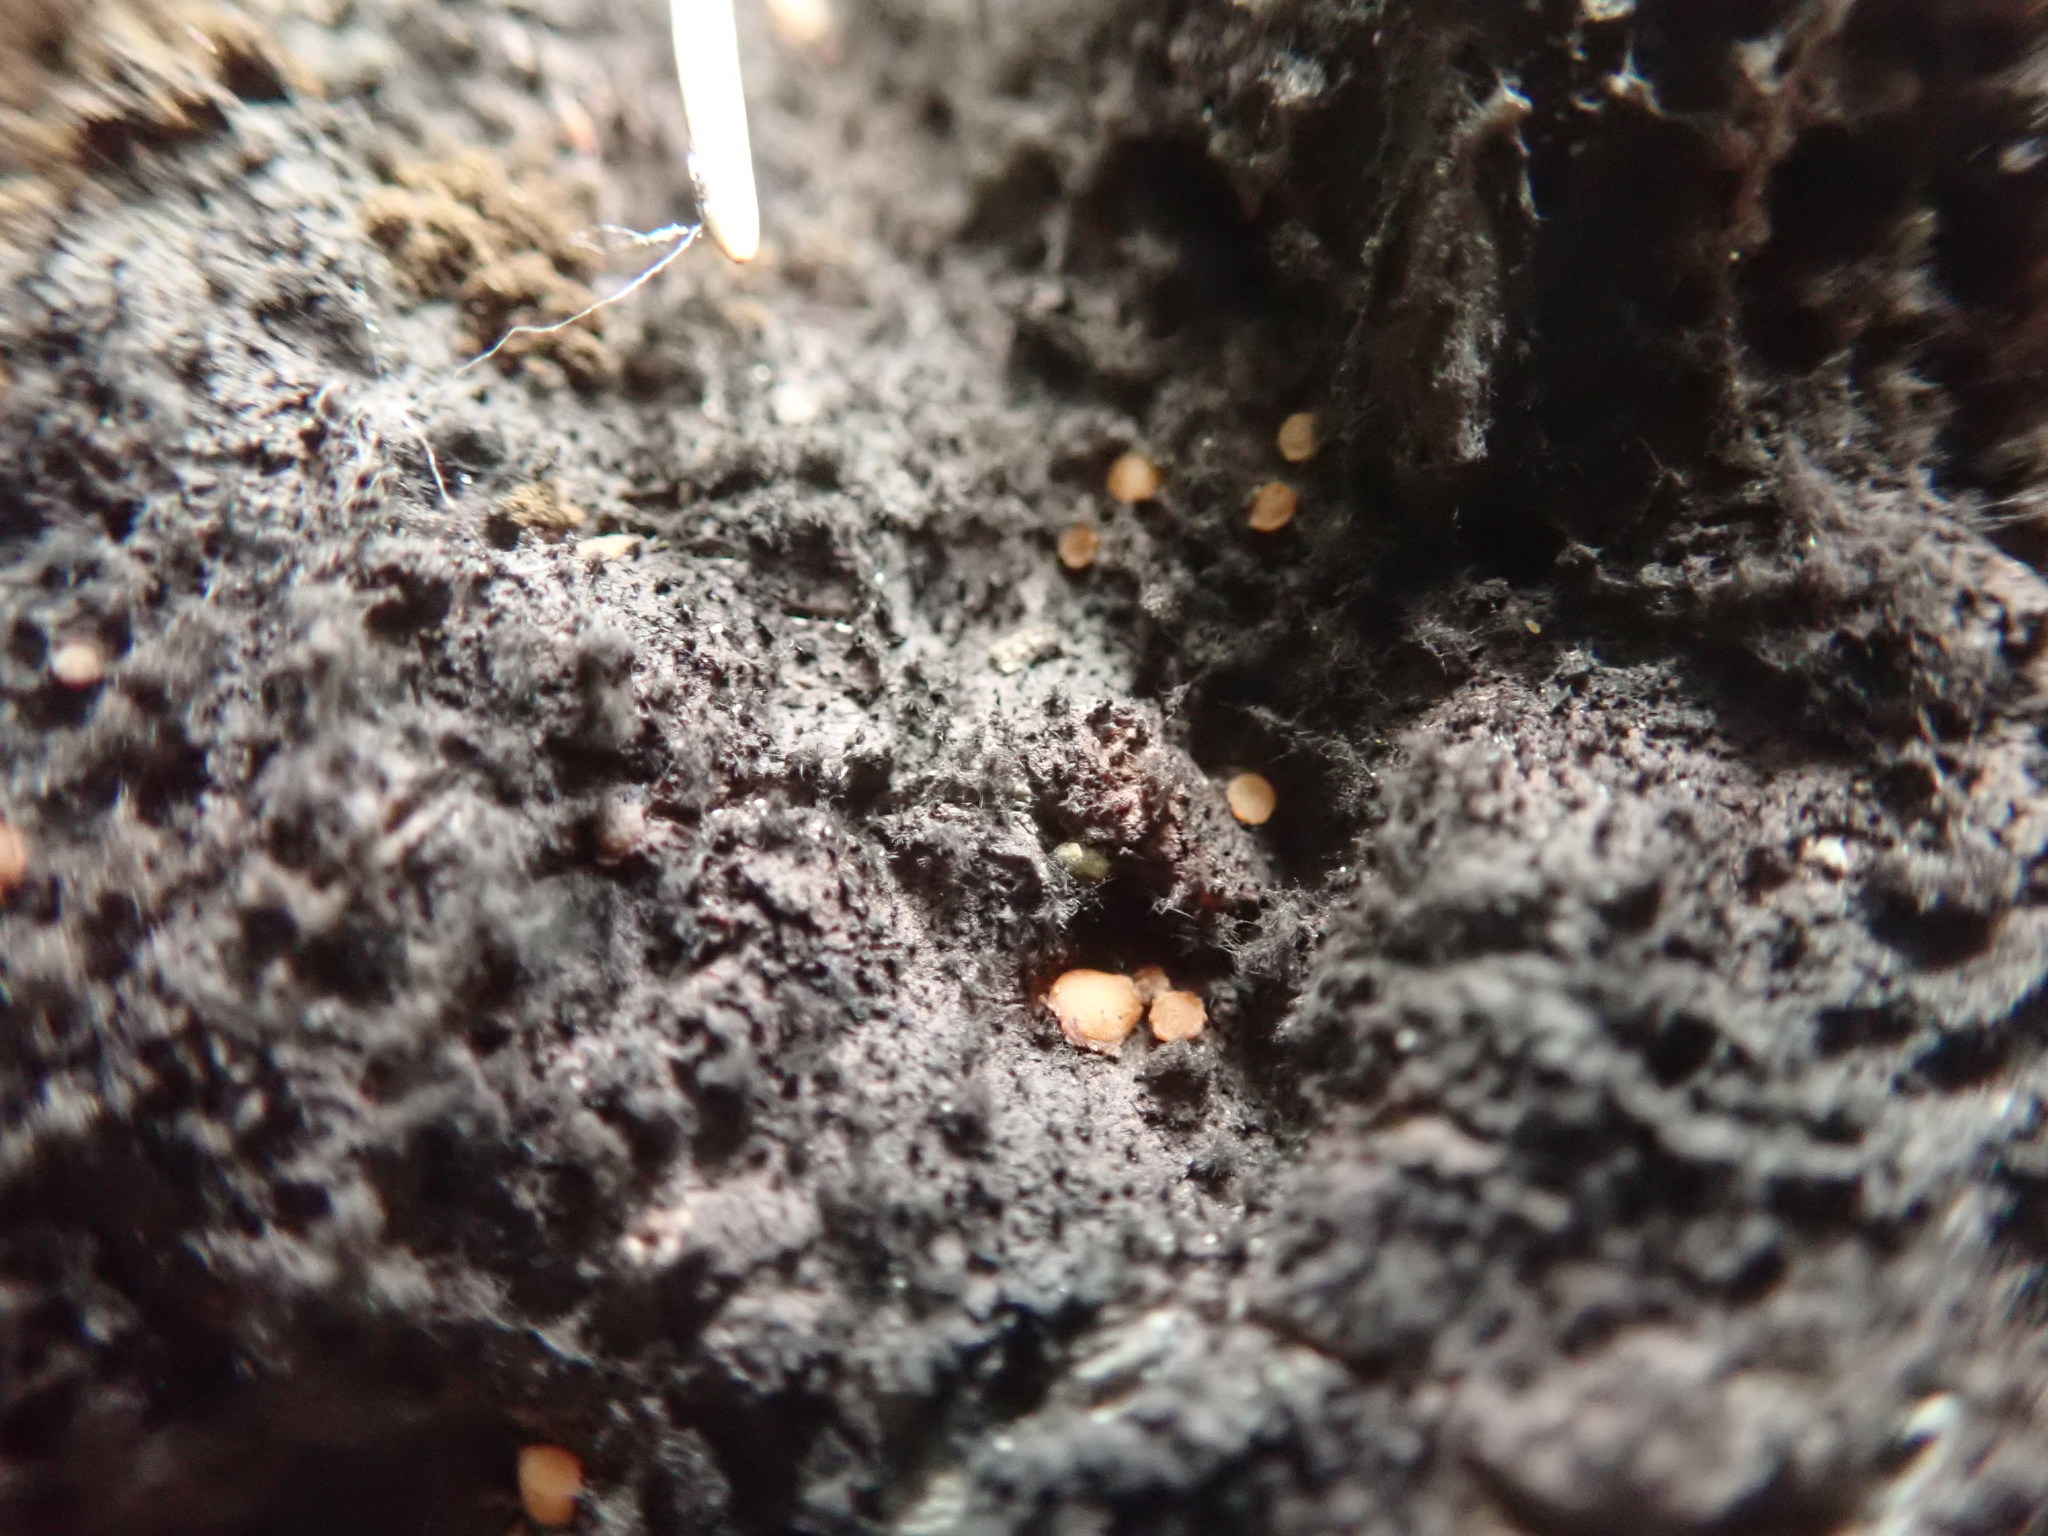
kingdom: Fungi
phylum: Ascomycota
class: Sareomycetes
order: Sareales
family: Sareaceae
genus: Sarea
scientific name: Sarea resinae
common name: Sarea lichen
